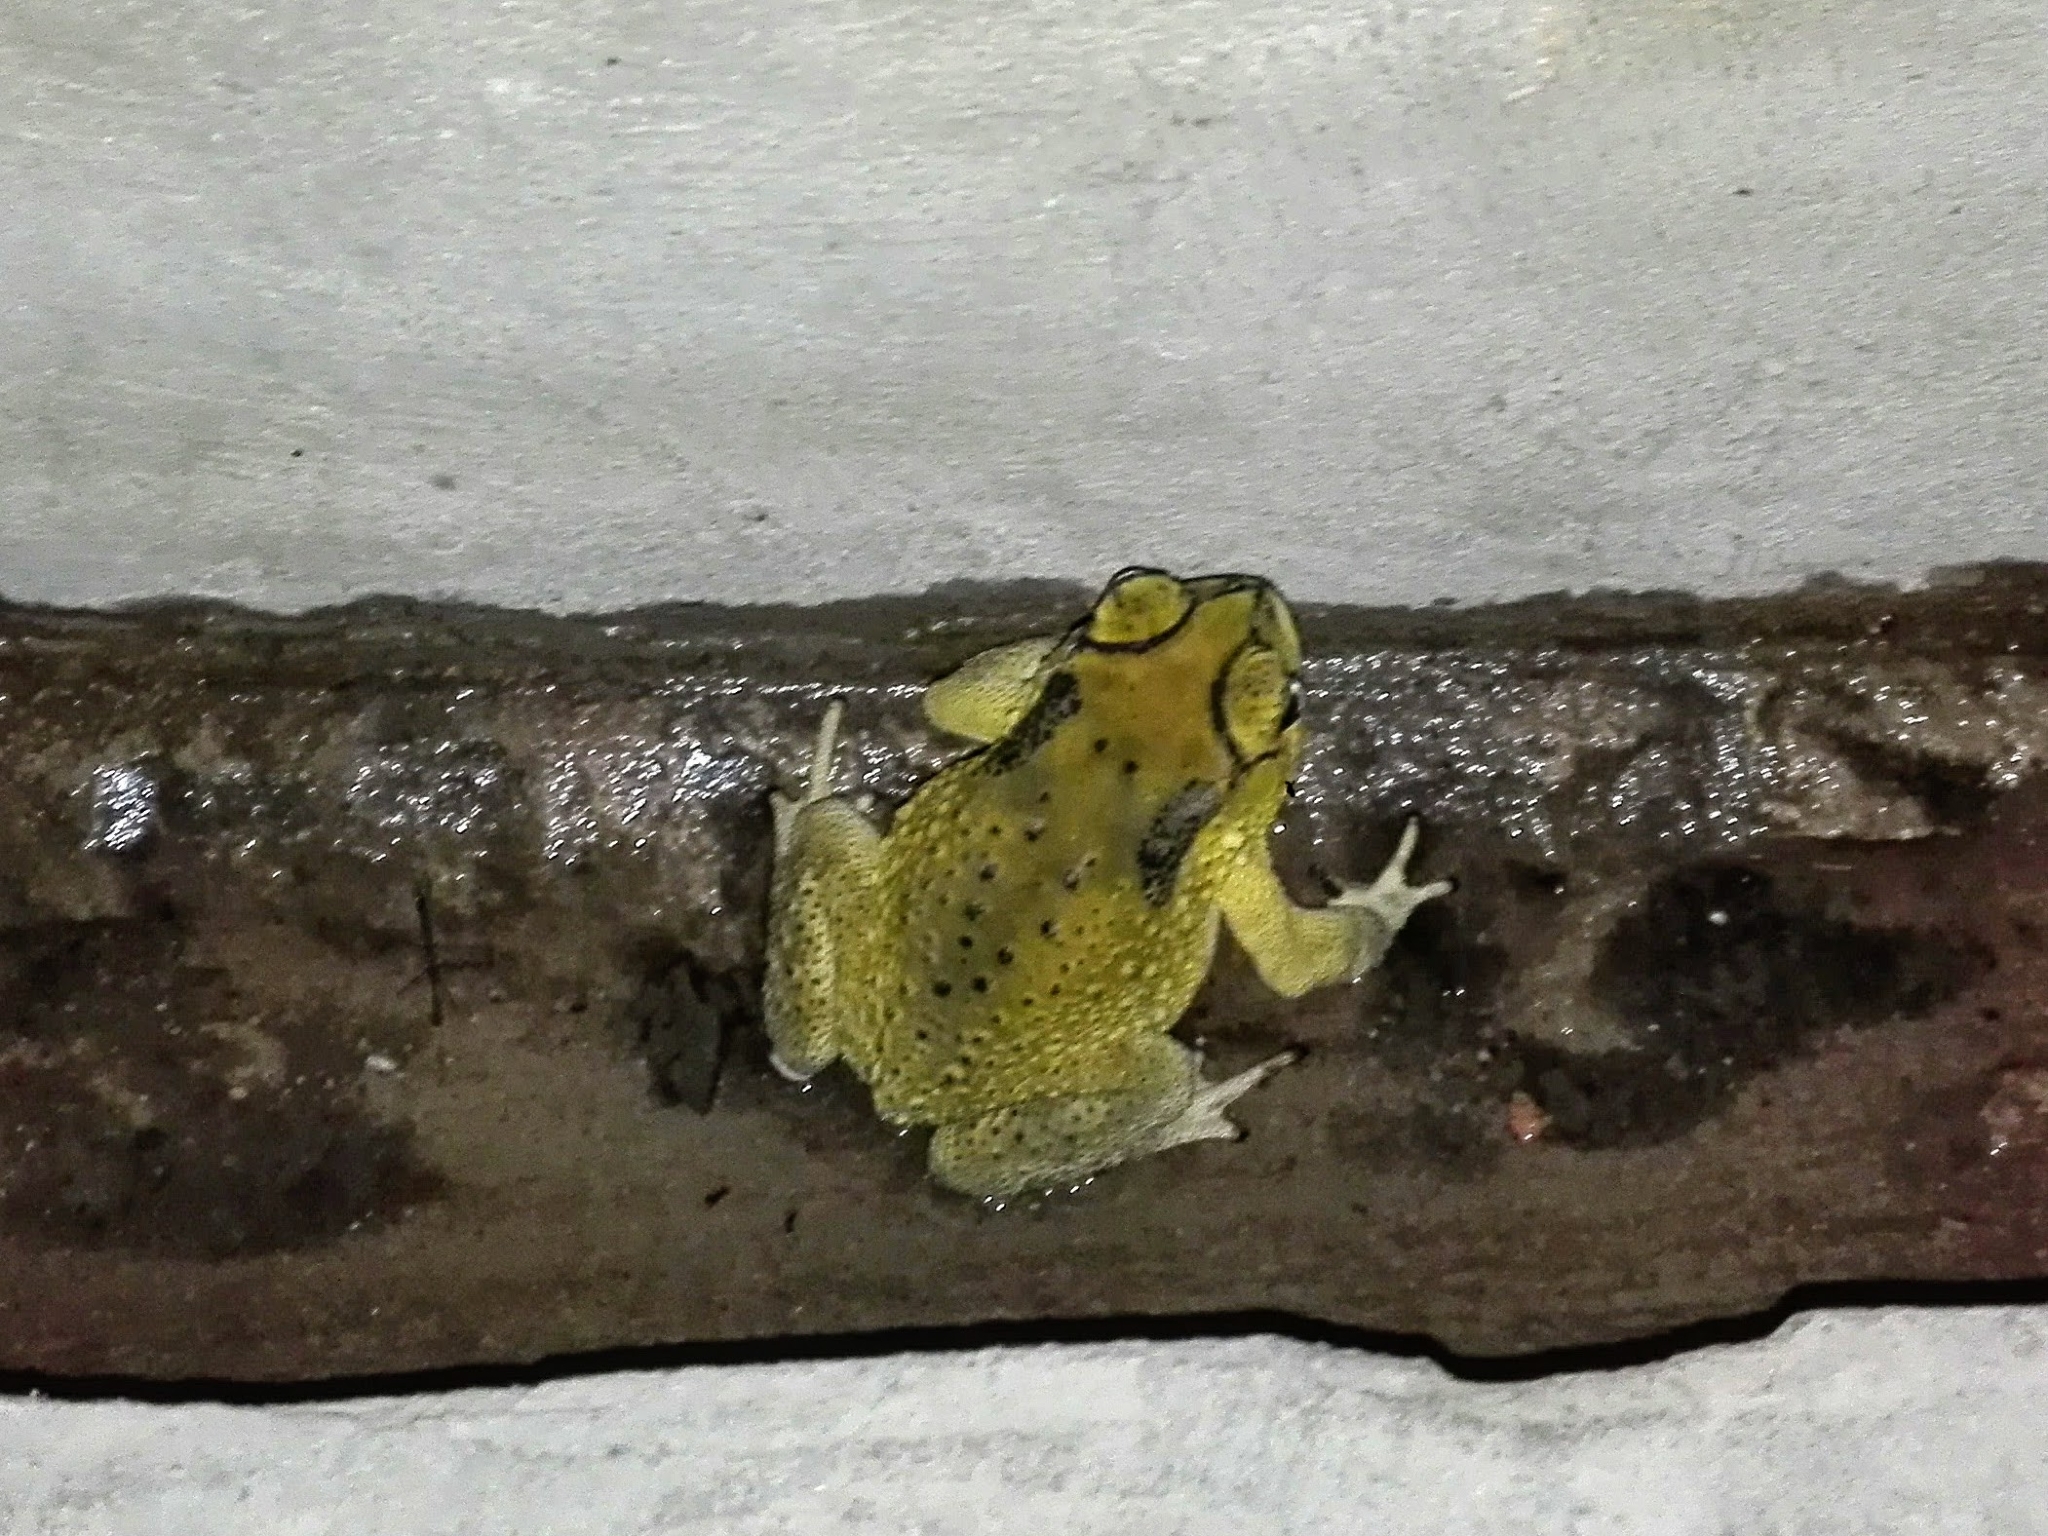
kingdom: Animalia
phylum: Chordata
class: Amphibia
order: Anura
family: Bufonidae
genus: Duttaphrynus
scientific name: Duttaphrynus melanostictus
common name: Common sunda toad
